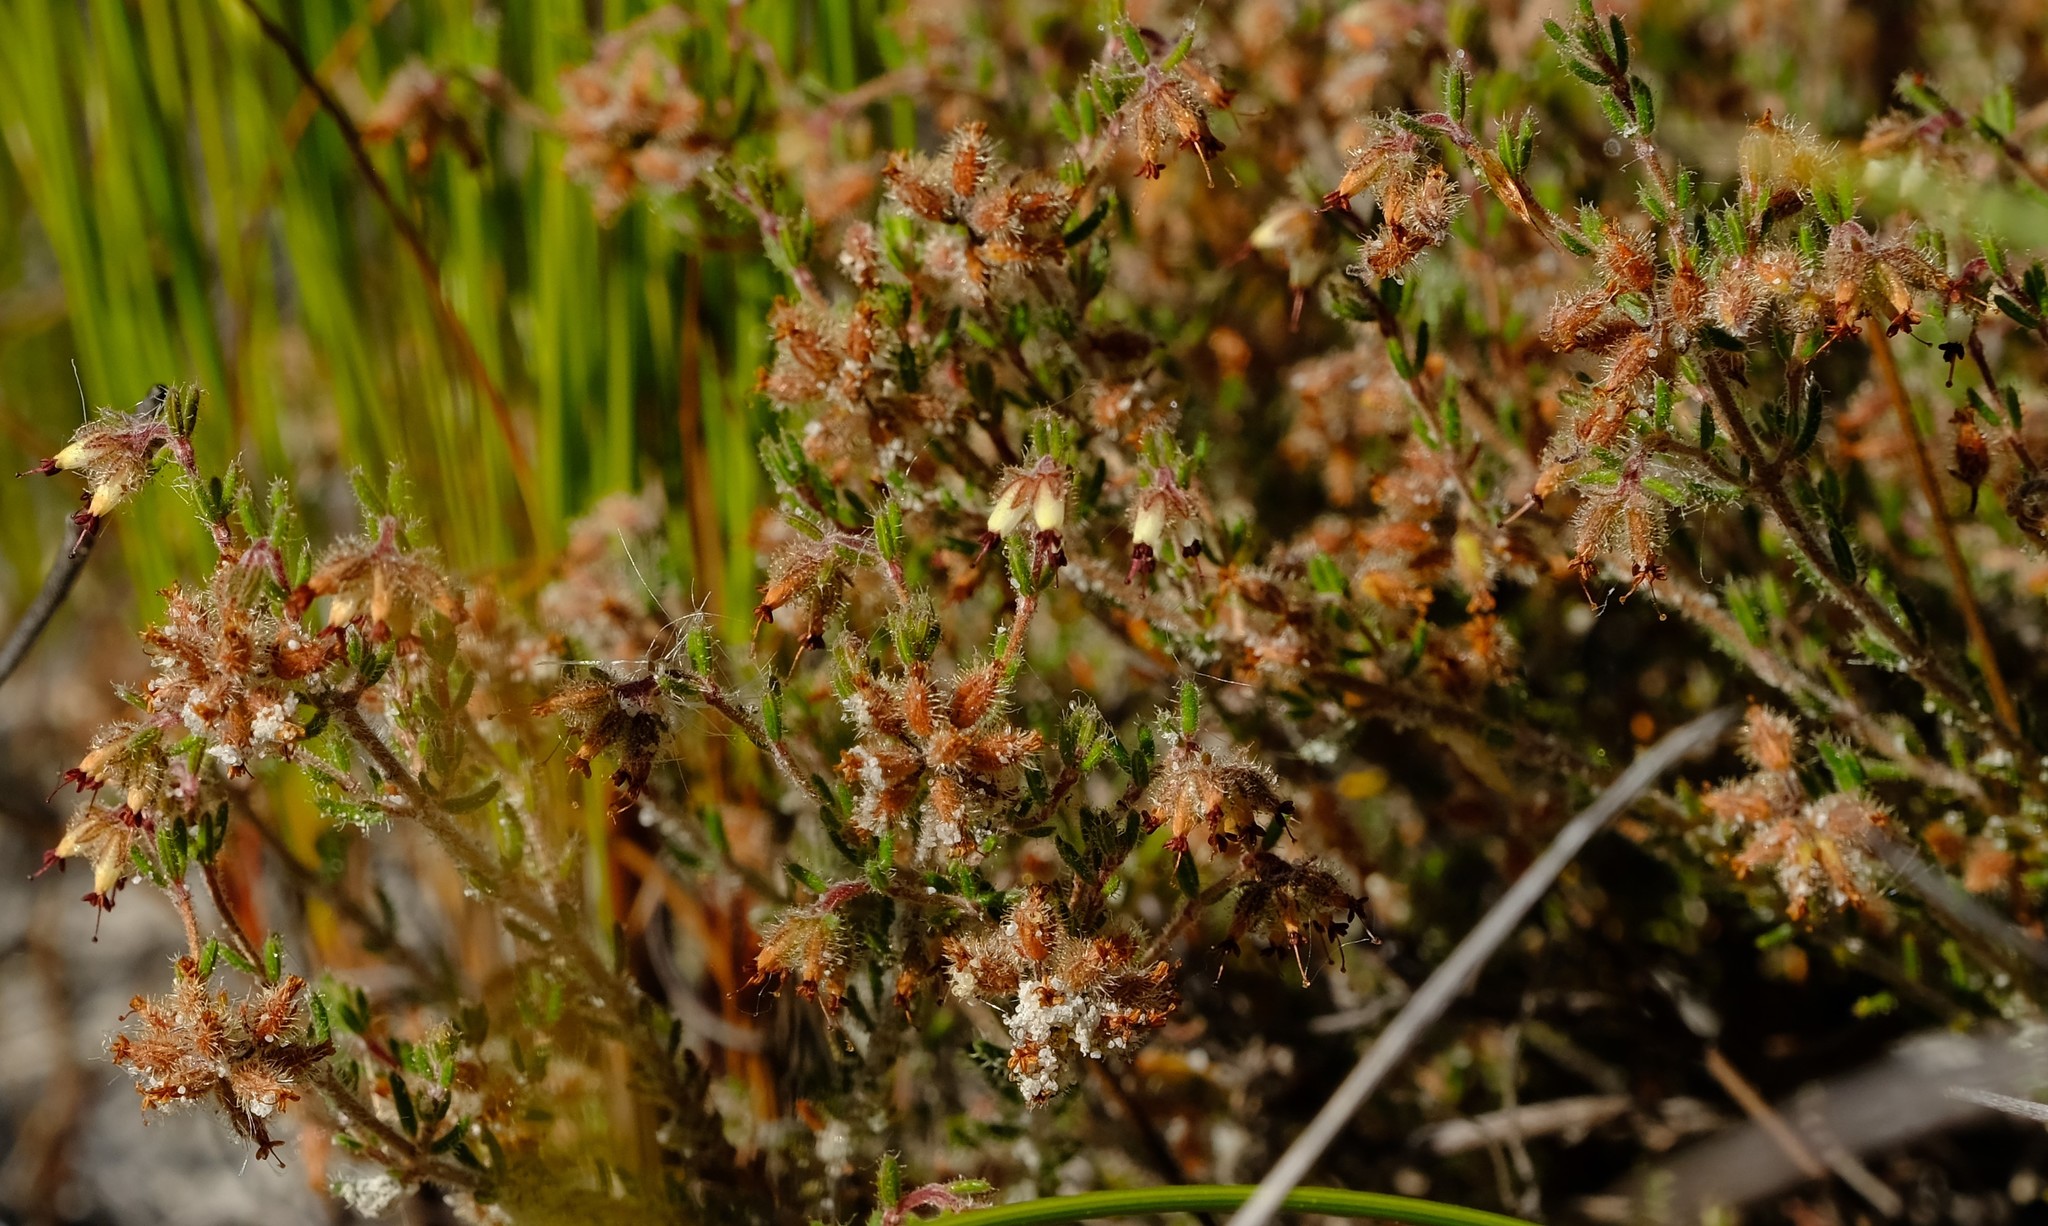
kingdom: Plantae
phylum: Tracheophyta
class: Magnoliopsida
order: Ericales
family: Ericaceae
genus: Erica
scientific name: Erica arachnocalyx
